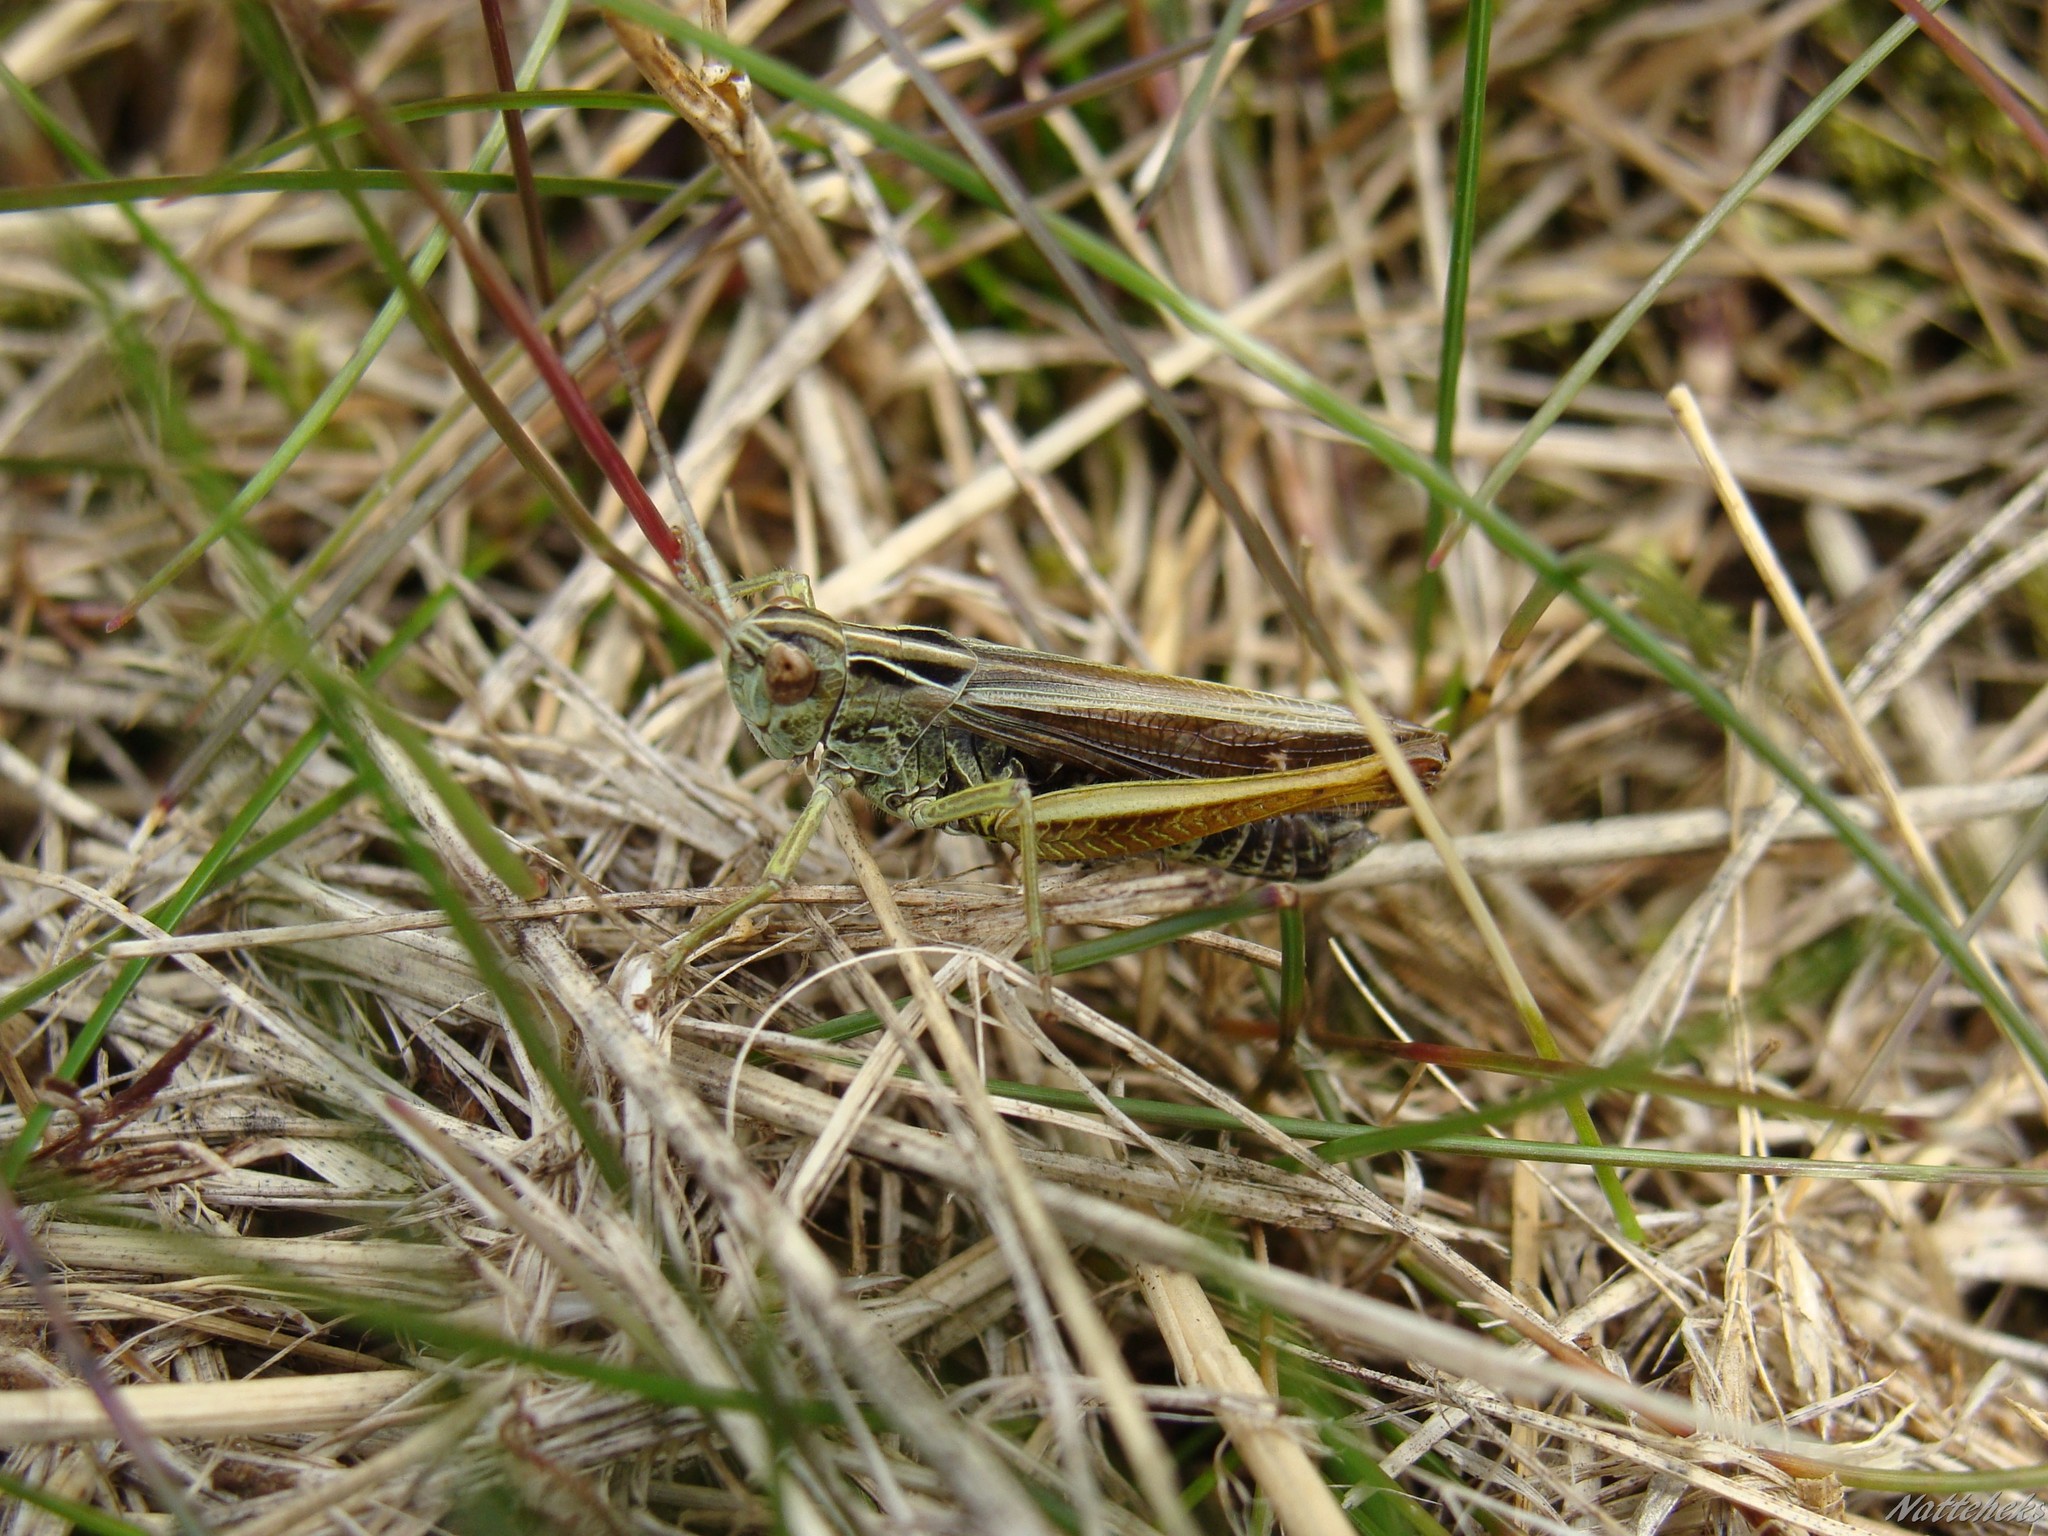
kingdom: Animalia
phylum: Arthropoda
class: Insecta
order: Orthoptera
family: Acrididae
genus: Omocestus
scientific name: Omocestus viridulus
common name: Common green grasshopper
